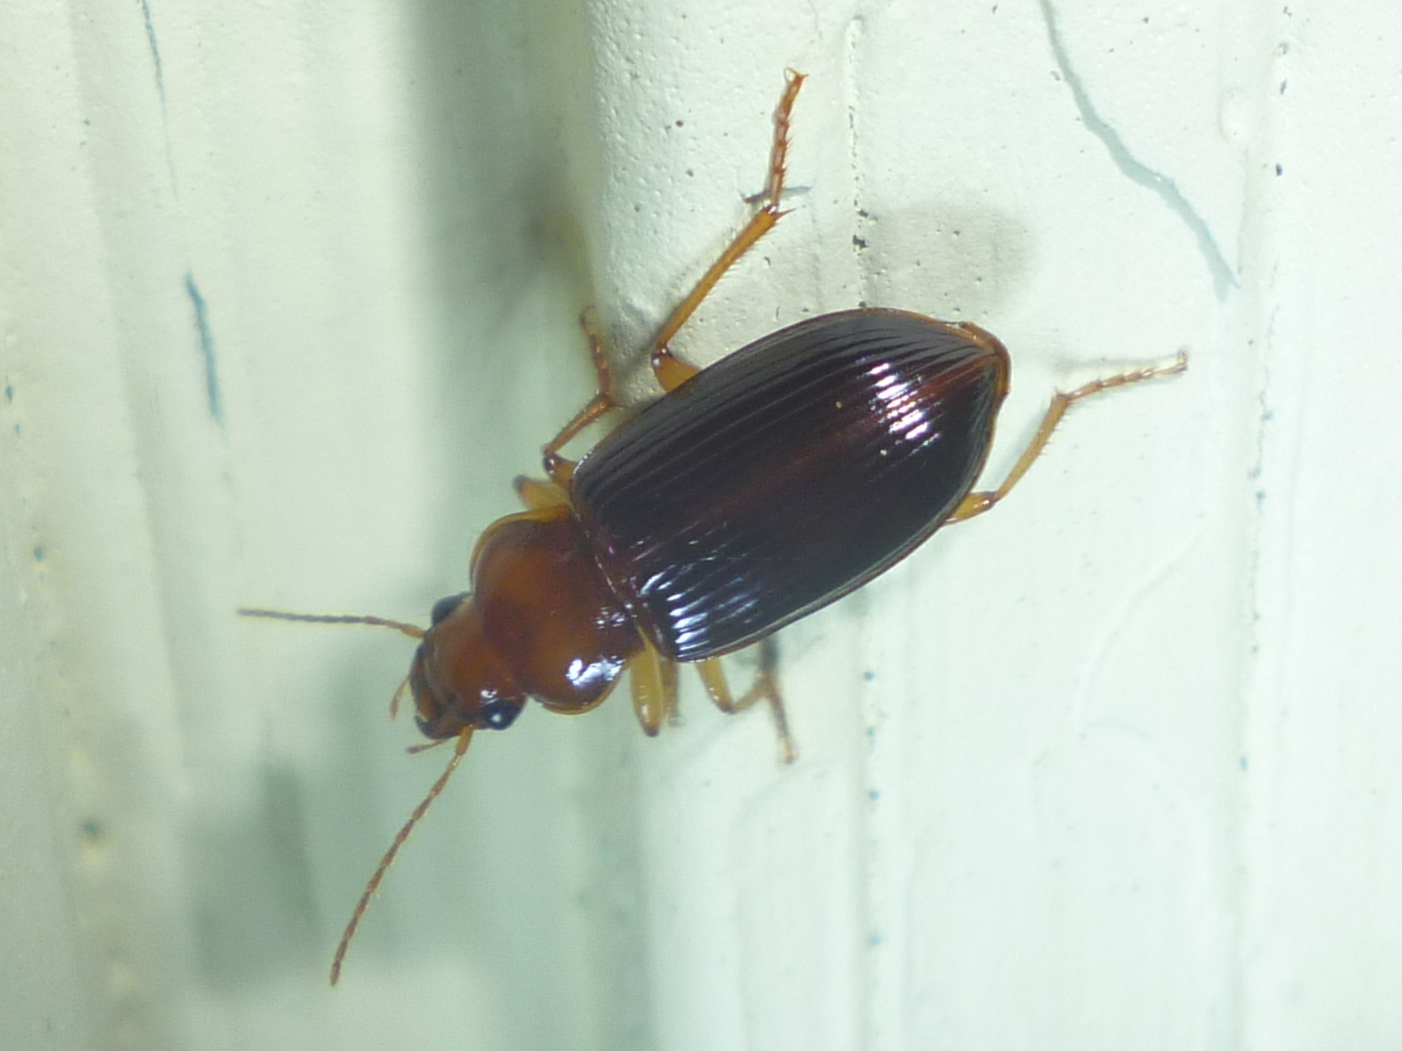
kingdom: Animalia
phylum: Arthropoda
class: Insecta
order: Coleoptera
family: Carabidae
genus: Trichotichnus
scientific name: Trichotichnus vulpeculus
